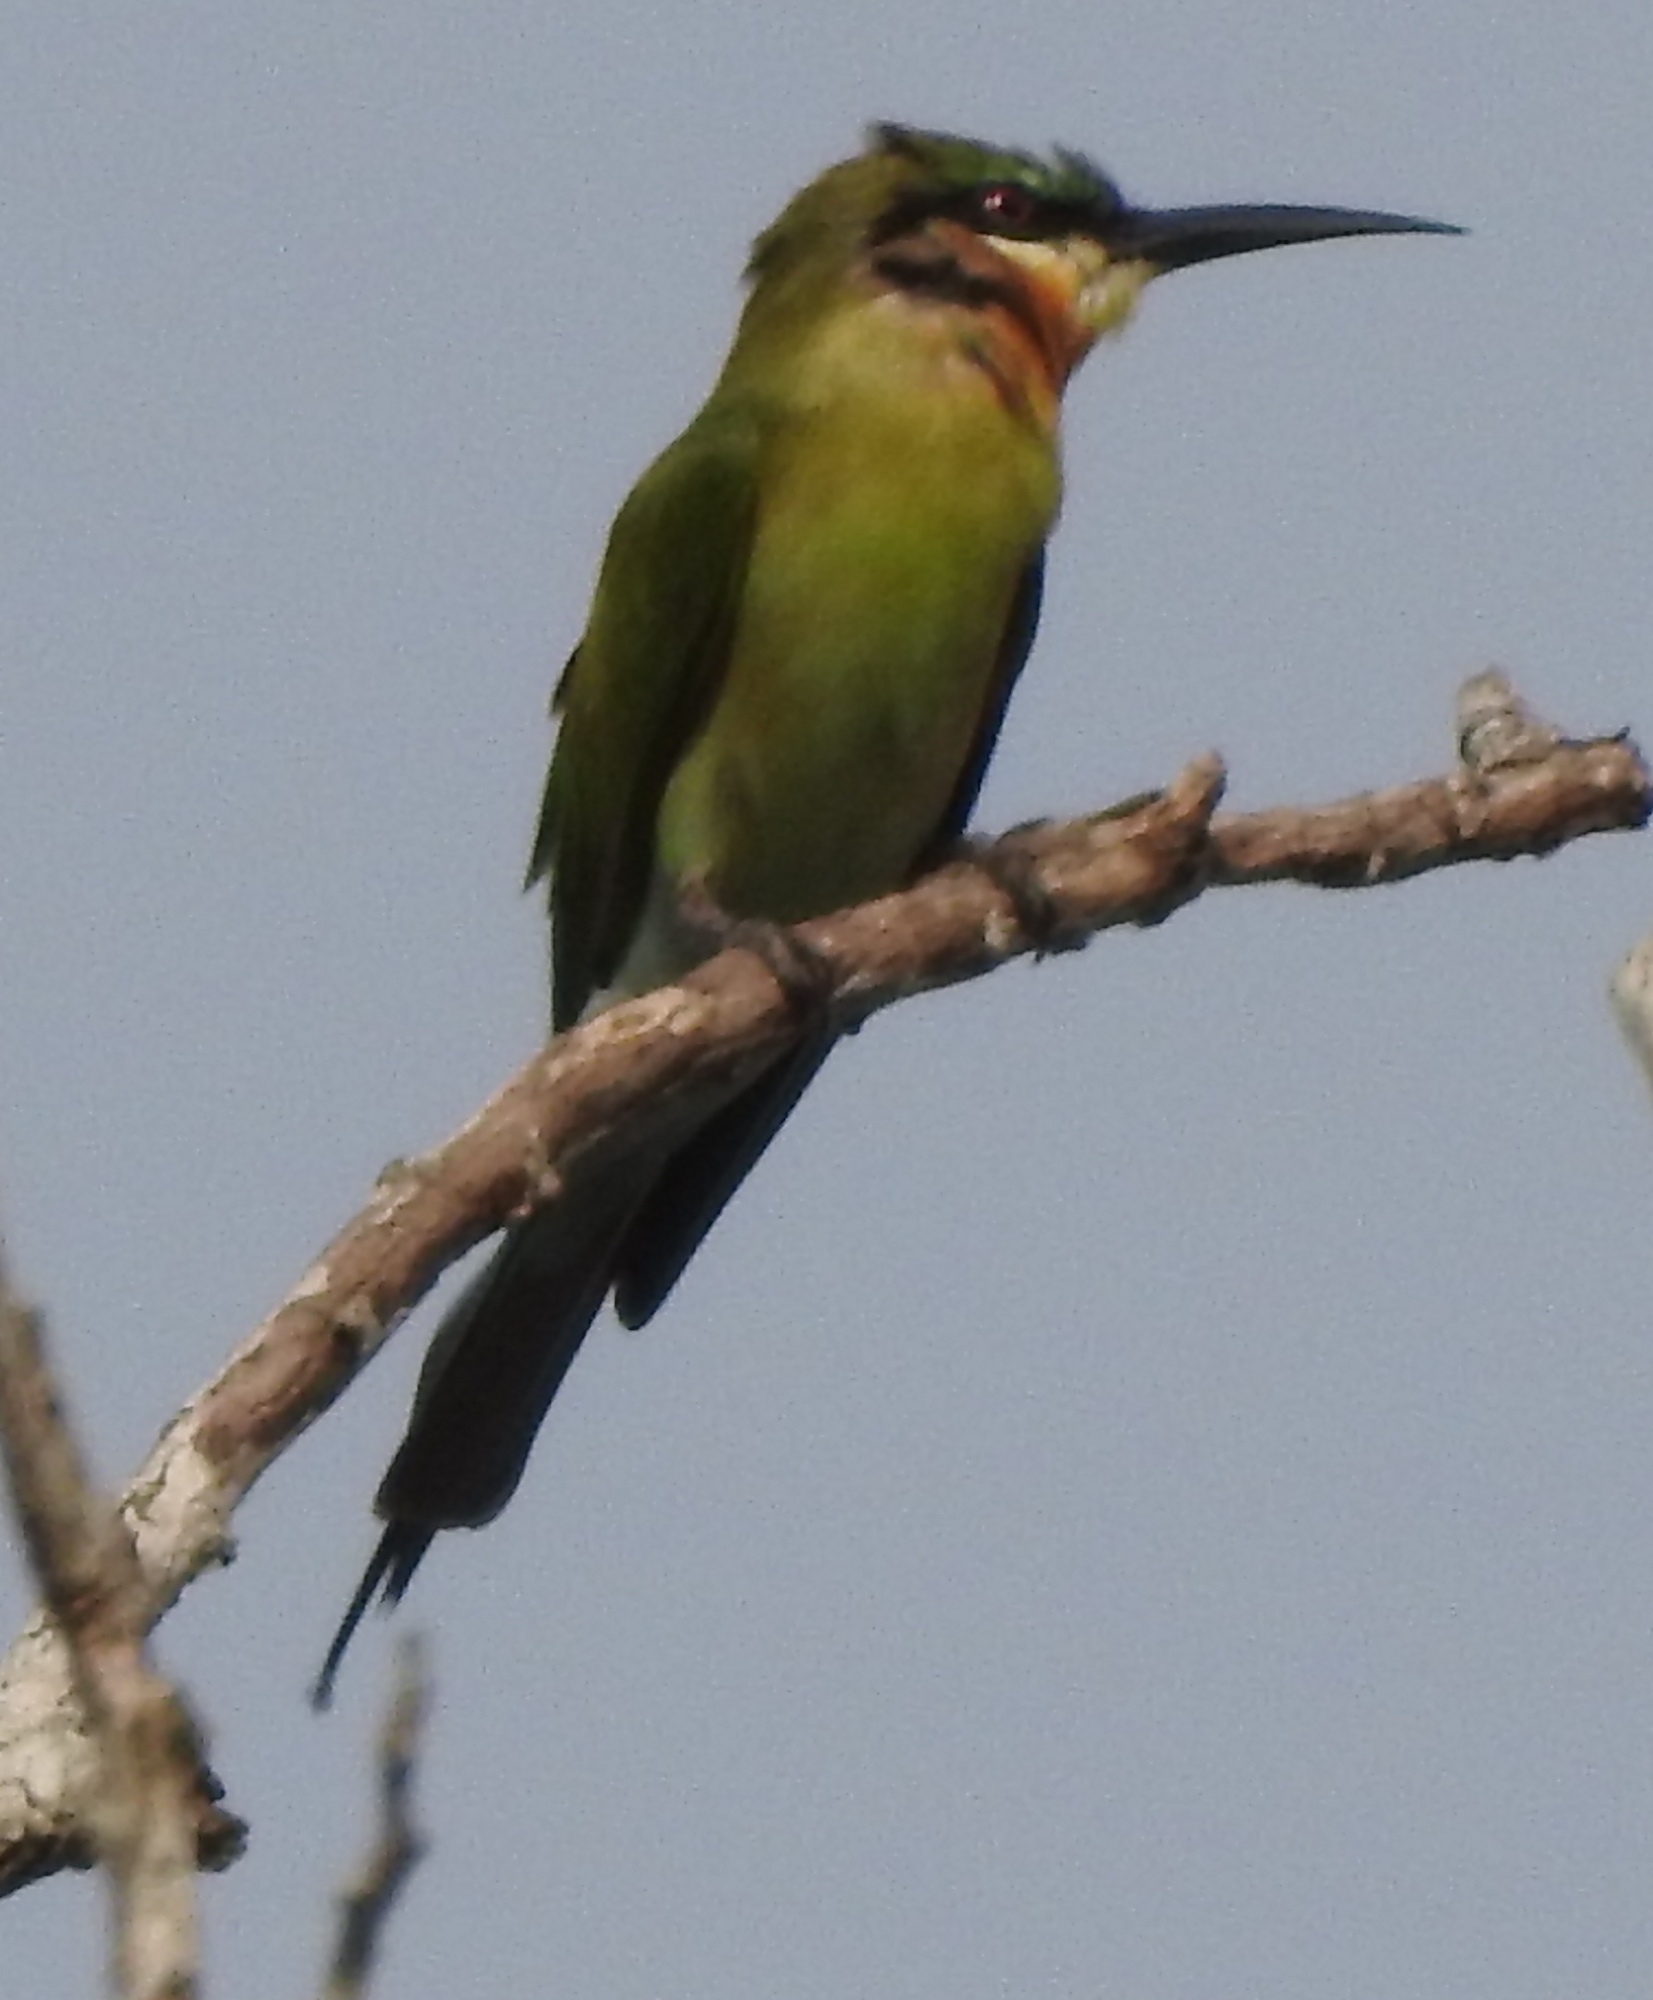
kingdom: Animalia
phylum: Chordata
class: Aves
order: Coraciiformes
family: Meropidae
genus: Merops
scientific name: Merops philippinus
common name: Blue-tailed bee-eater
